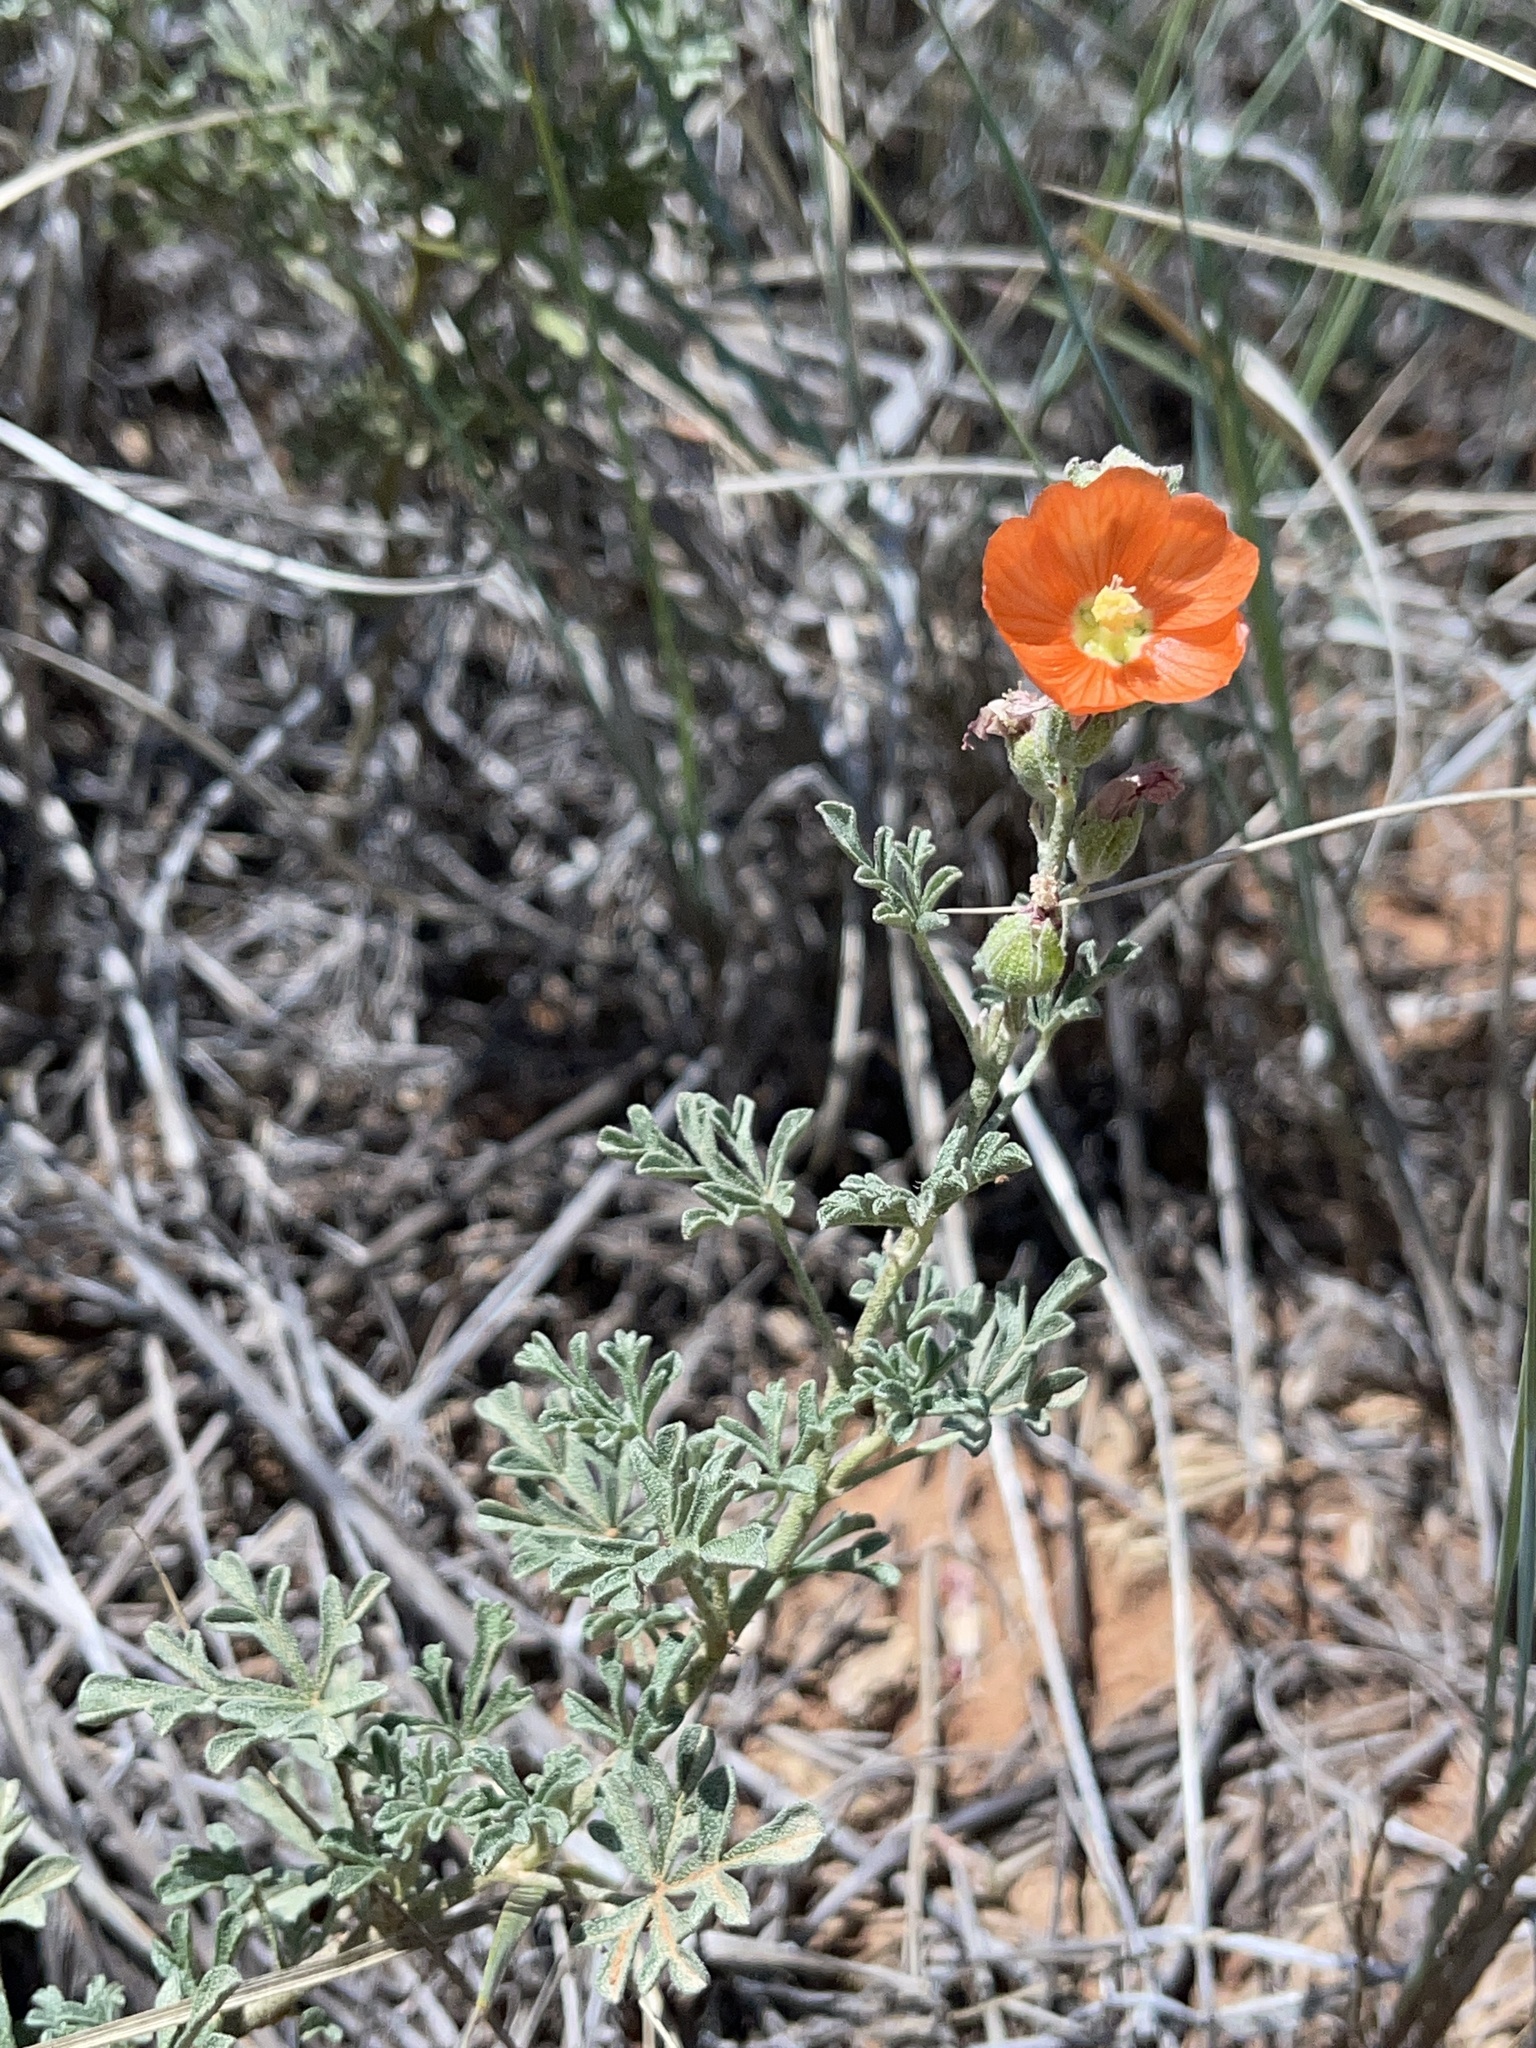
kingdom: Plantae
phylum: Tracheophyta
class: Magnoliopsida
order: Malvales
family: Malvaceae
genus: Sphaeralcea
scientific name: Sphaeralcea coccinea
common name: Moss-rose
